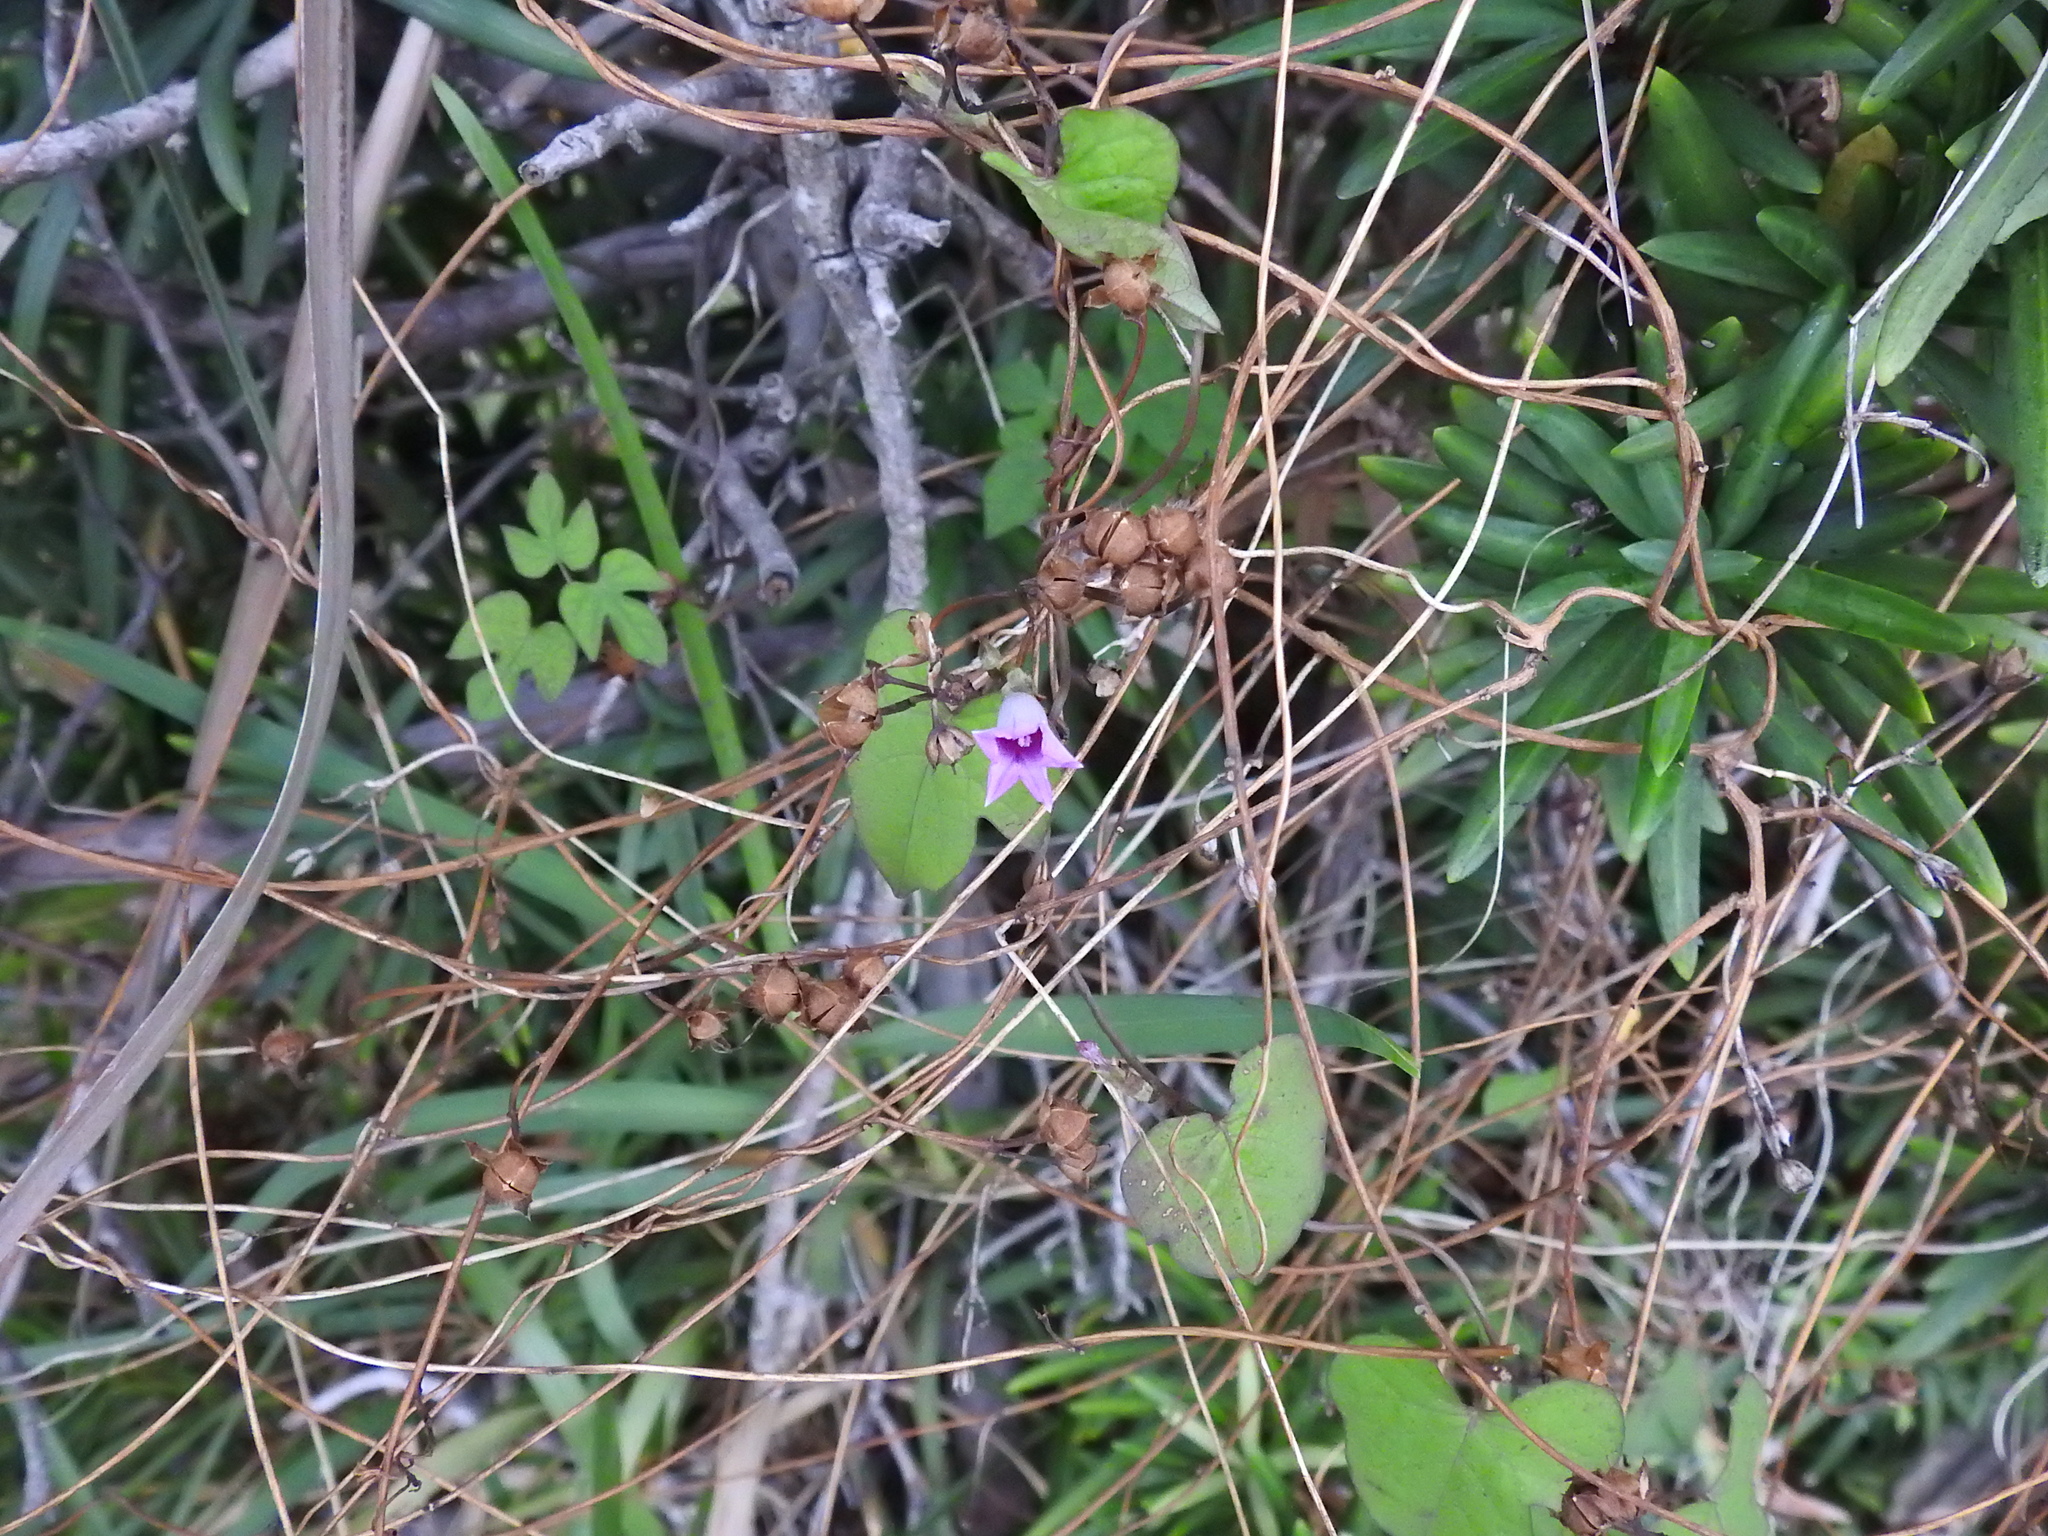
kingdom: Plantae
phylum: Tracheophyta
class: Magnoliopsida
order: Solanales
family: Convolvulaceae
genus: Ipomoea
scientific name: Ipomoea triloba
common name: Little-bell
